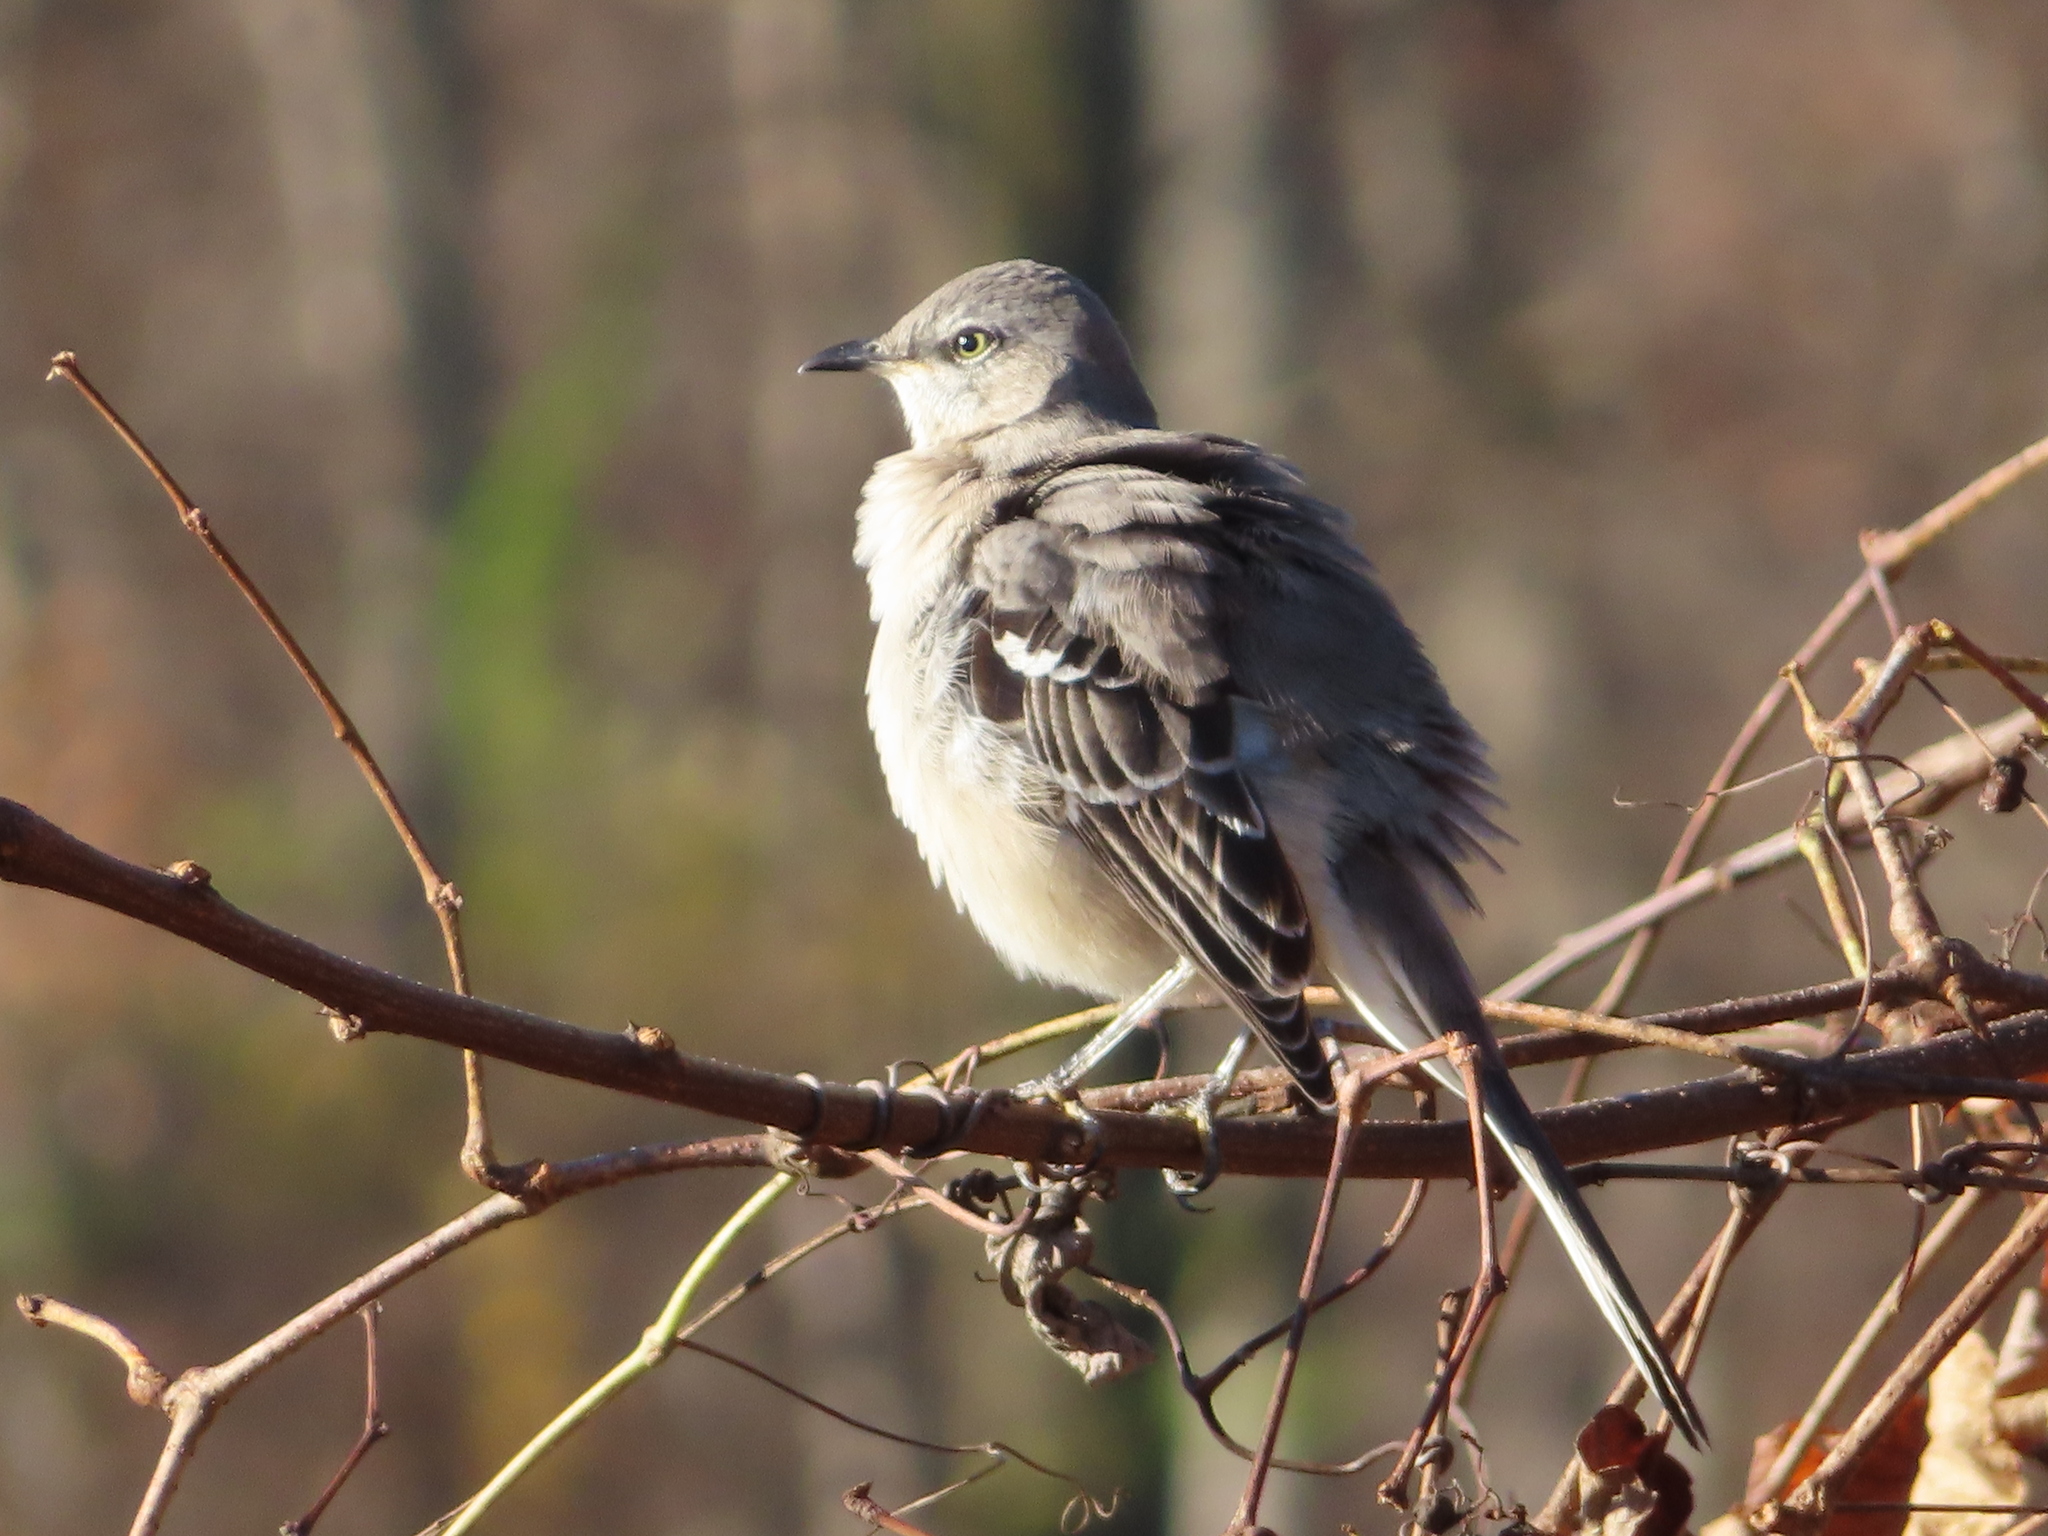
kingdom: Animalia
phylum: Chordata
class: Aves
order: Passeriformes
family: Mimidae
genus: Mimus
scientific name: Mimus polyglottos
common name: Northern mockingbird
